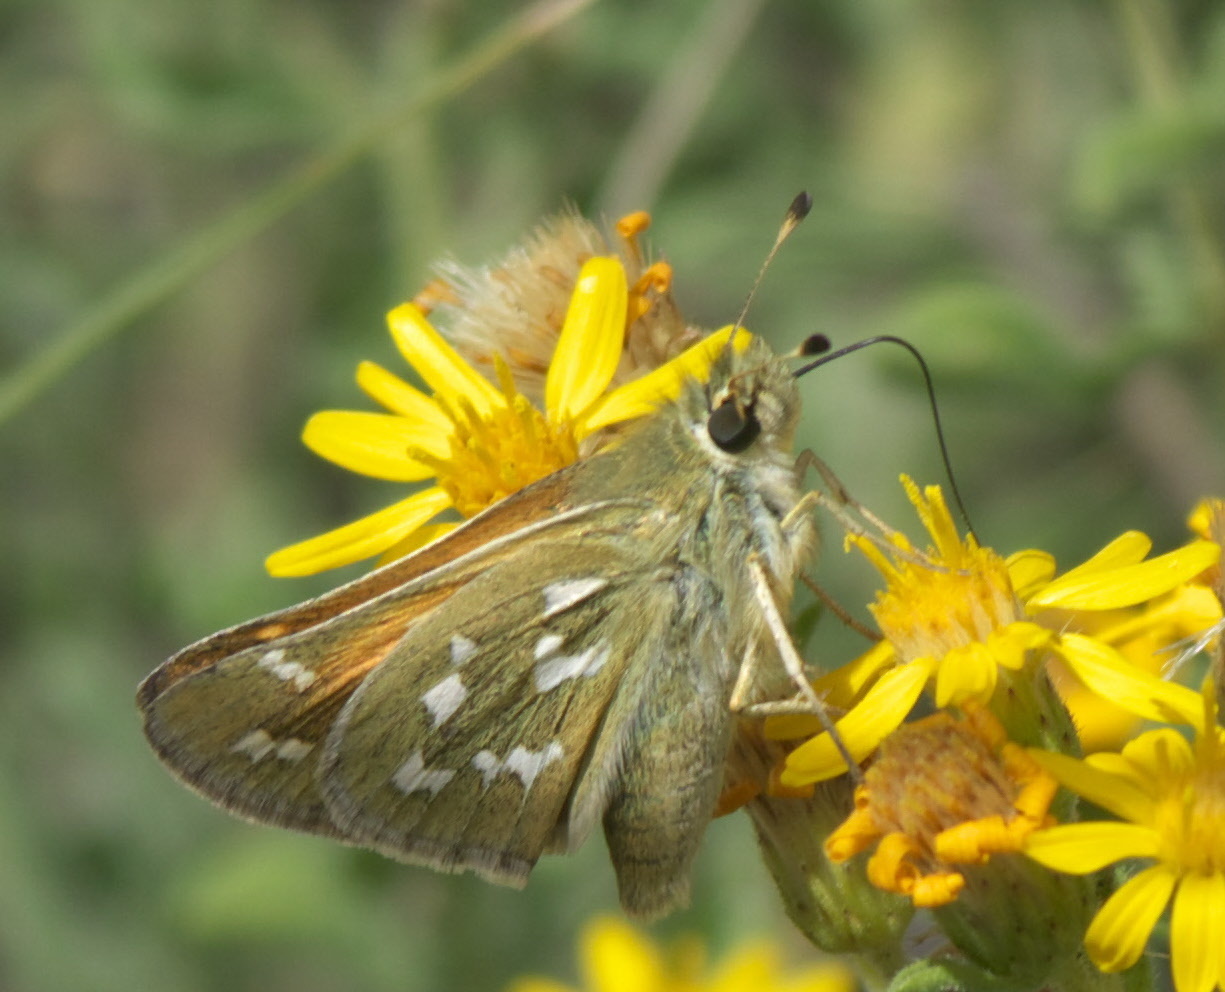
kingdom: Animalia
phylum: Arthropoda
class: Insecta
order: Lepidoptera
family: Hesperiidae
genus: Hesperia
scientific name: Hesperia comma
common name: Common branded skipper
